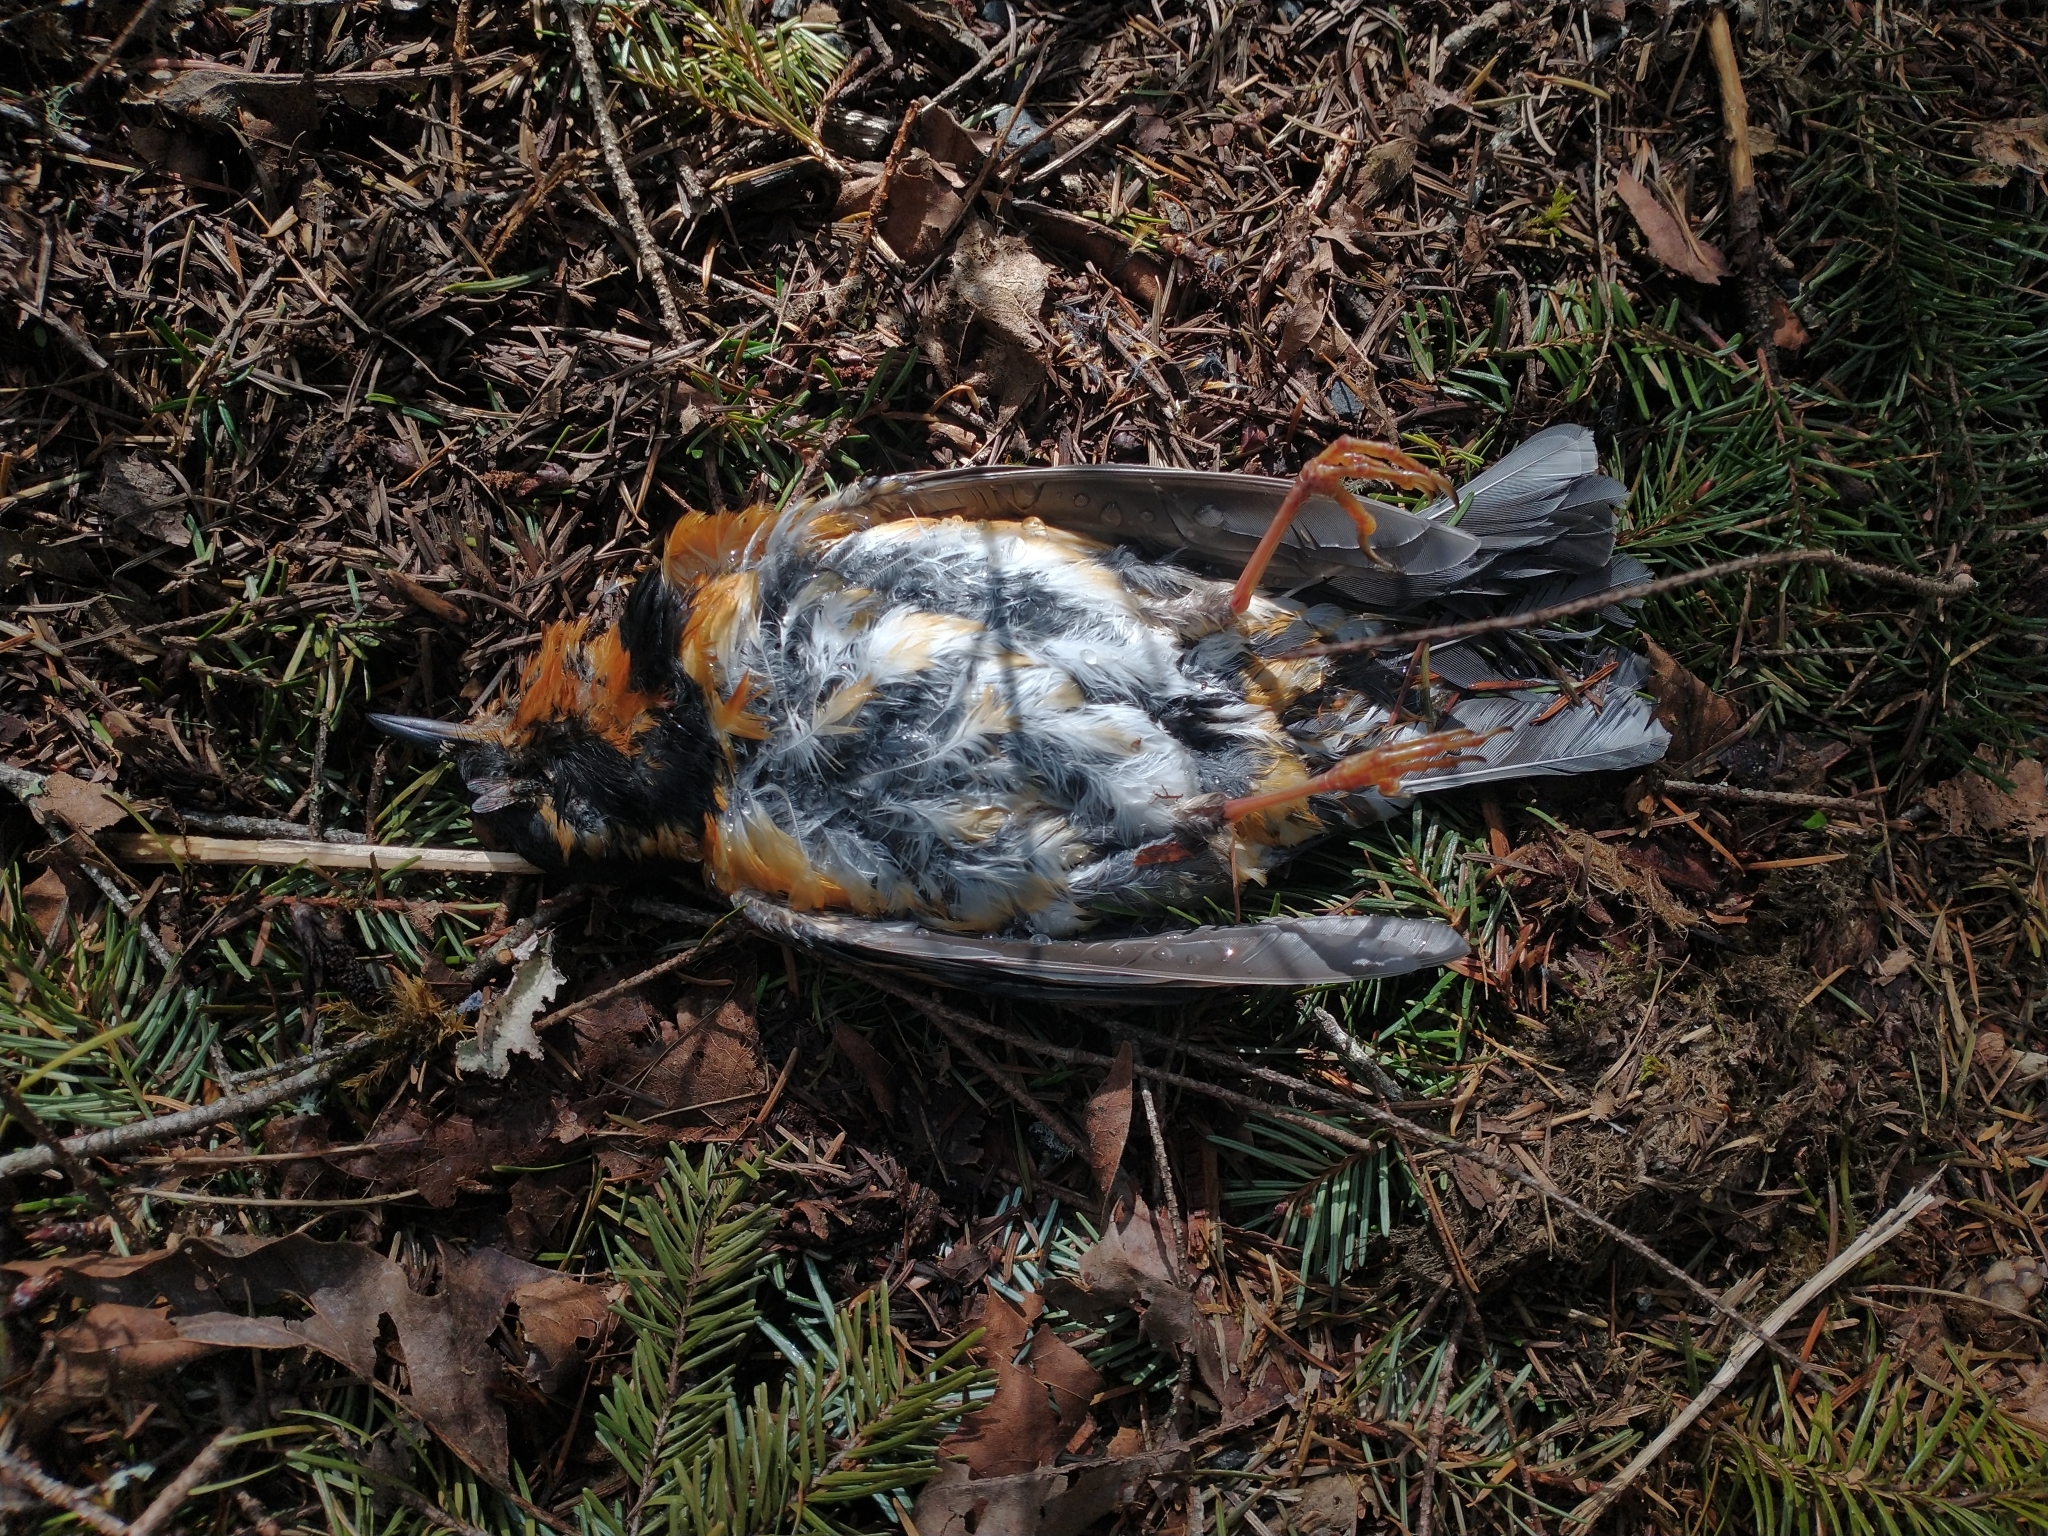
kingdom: Animalia
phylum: Chordata
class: Aves
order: Passeriformes
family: Turdidae
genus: Ixoreus
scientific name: Ixoreus naevius
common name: Varied thrush
